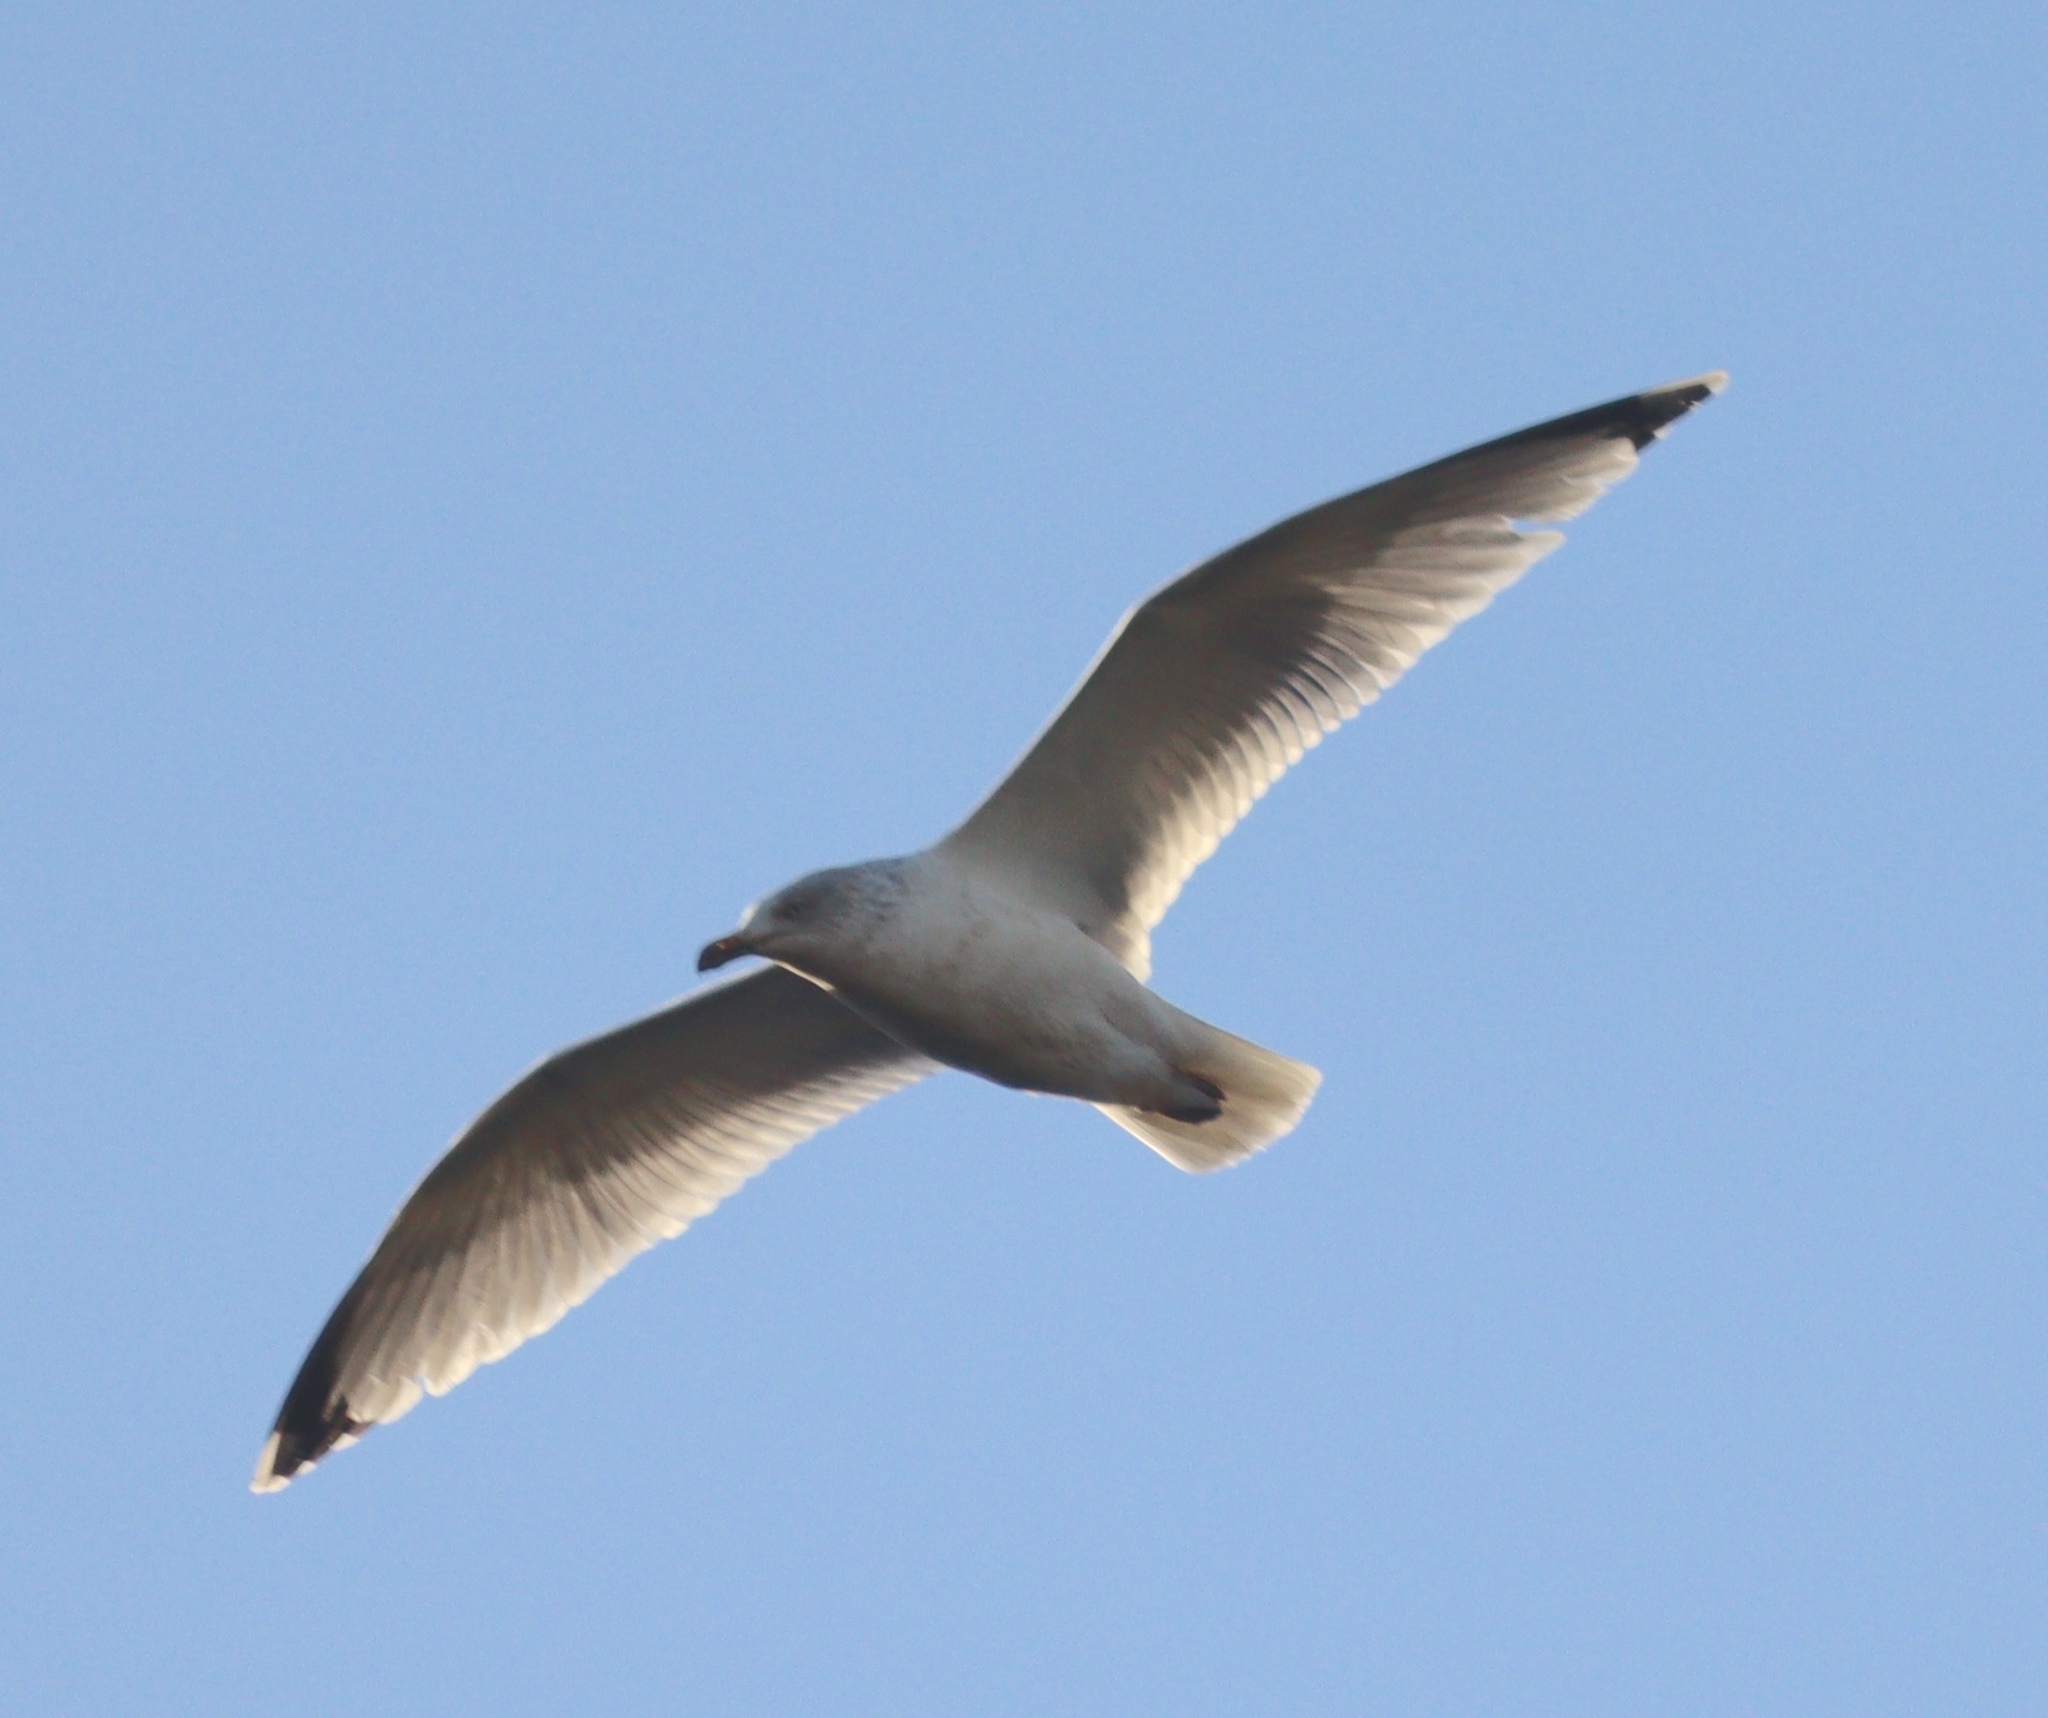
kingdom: Animalia
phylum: Chordata
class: Aves
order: Charadriiformes
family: Laridae
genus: Larus
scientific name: Larus argentatus
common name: Herring gull
